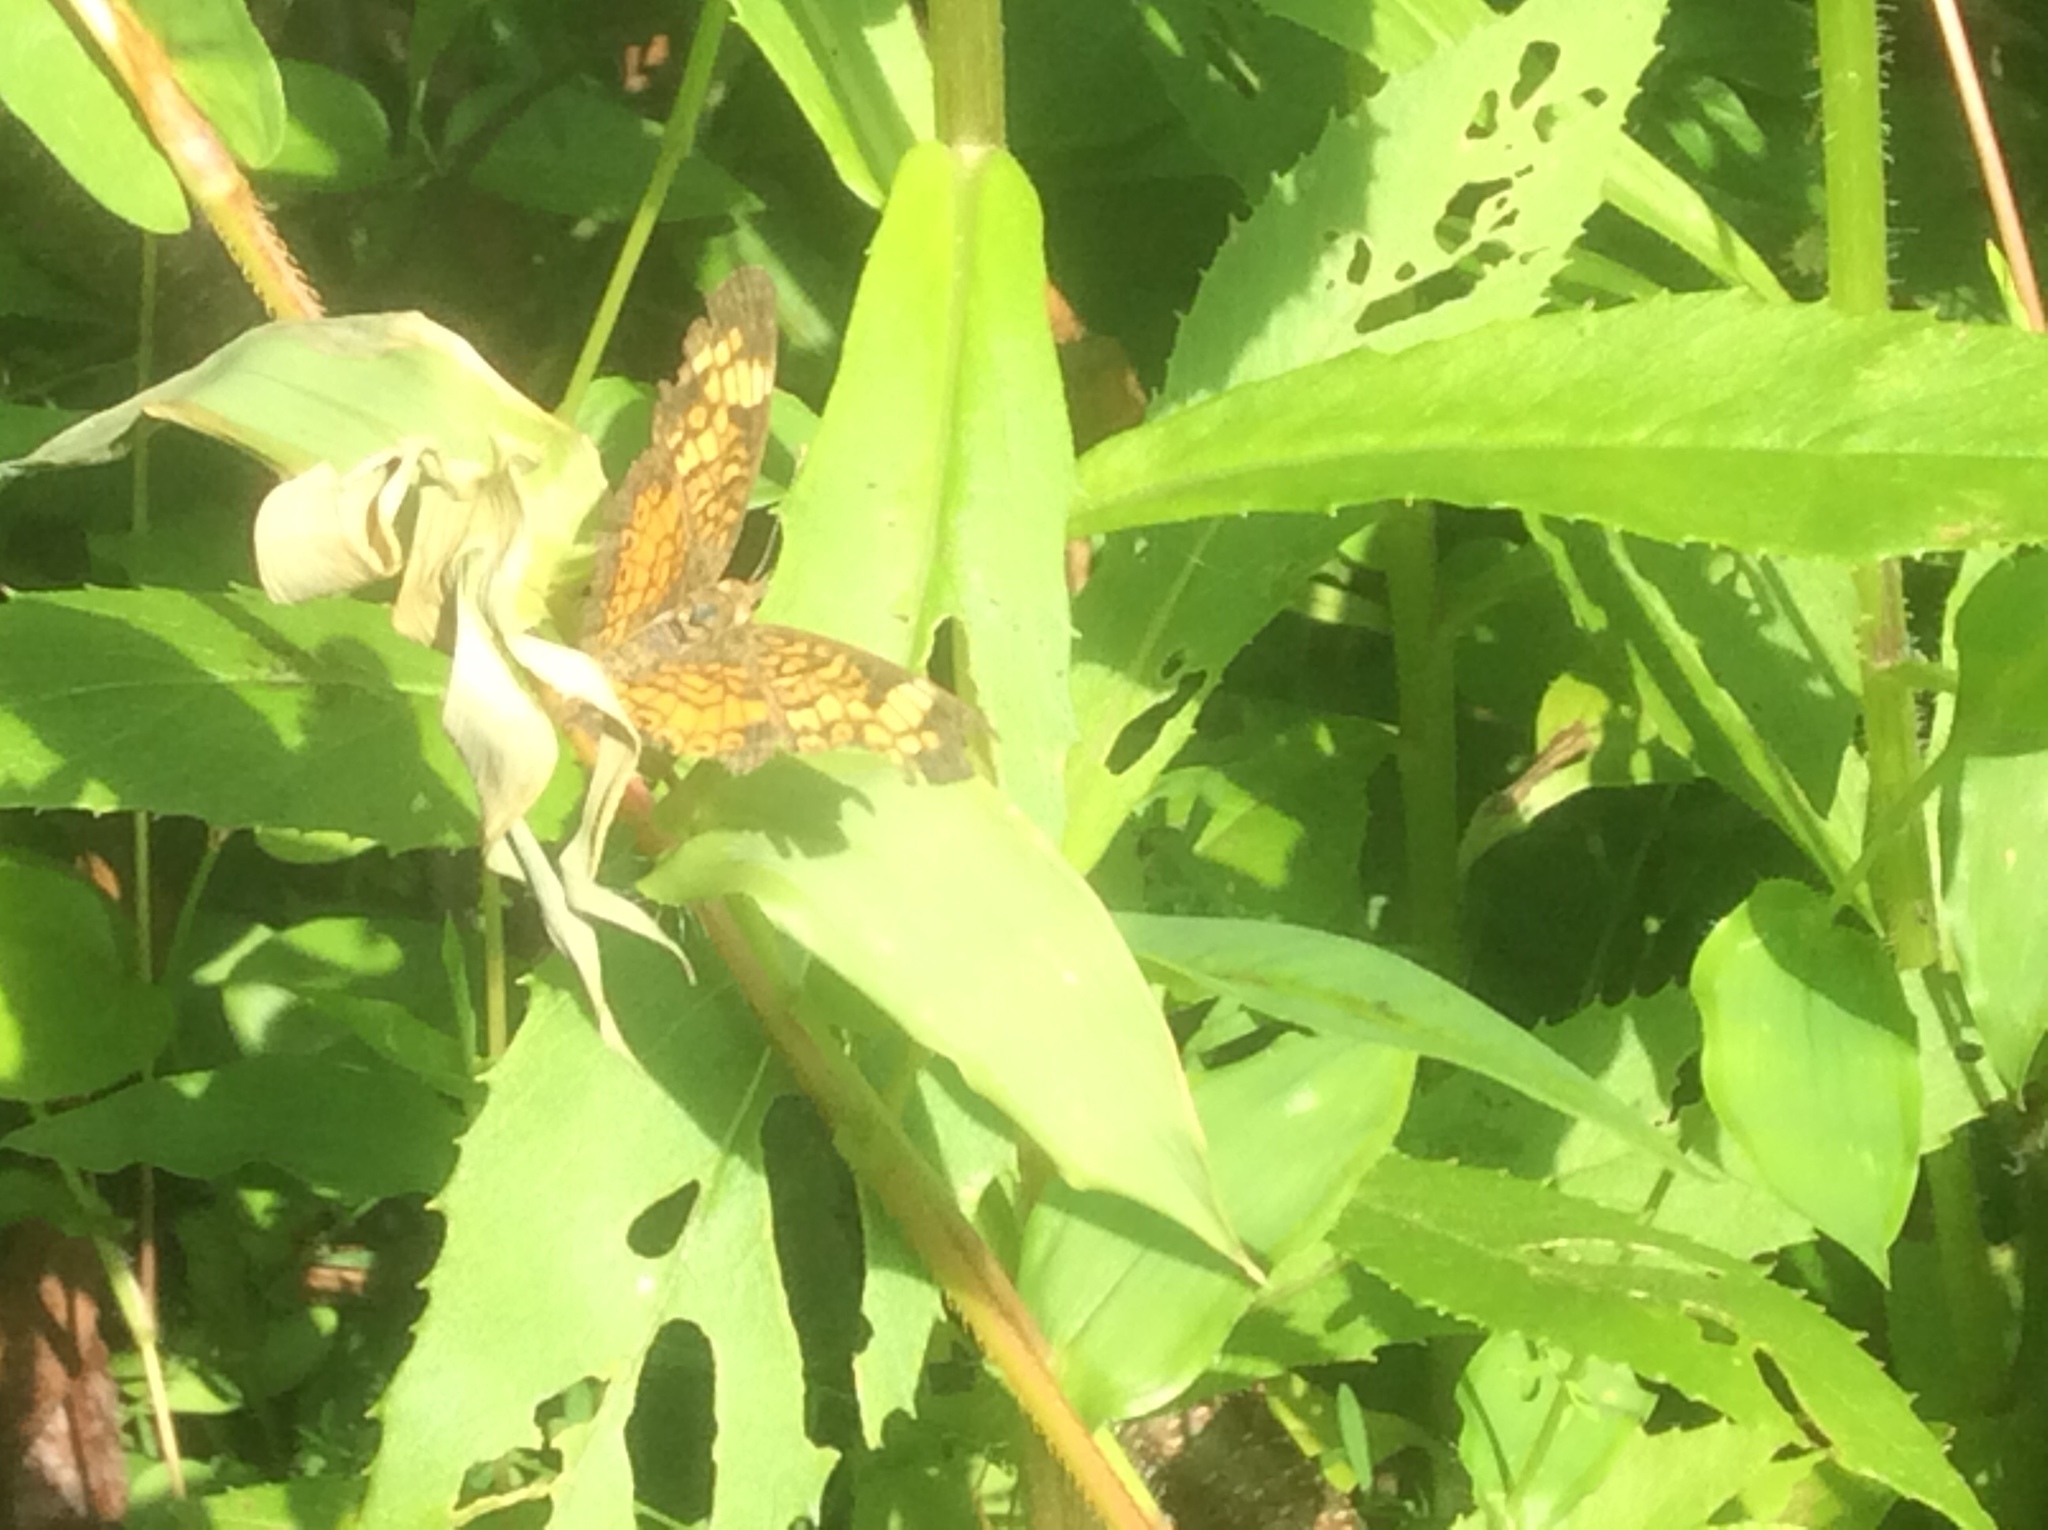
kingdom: Animalia
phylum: Arthropoda
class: Insecta
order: Lepidoptera
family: Nymphalidae
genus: Phyciodes
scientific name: Phyciodes tharos
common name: Pearl crescent
